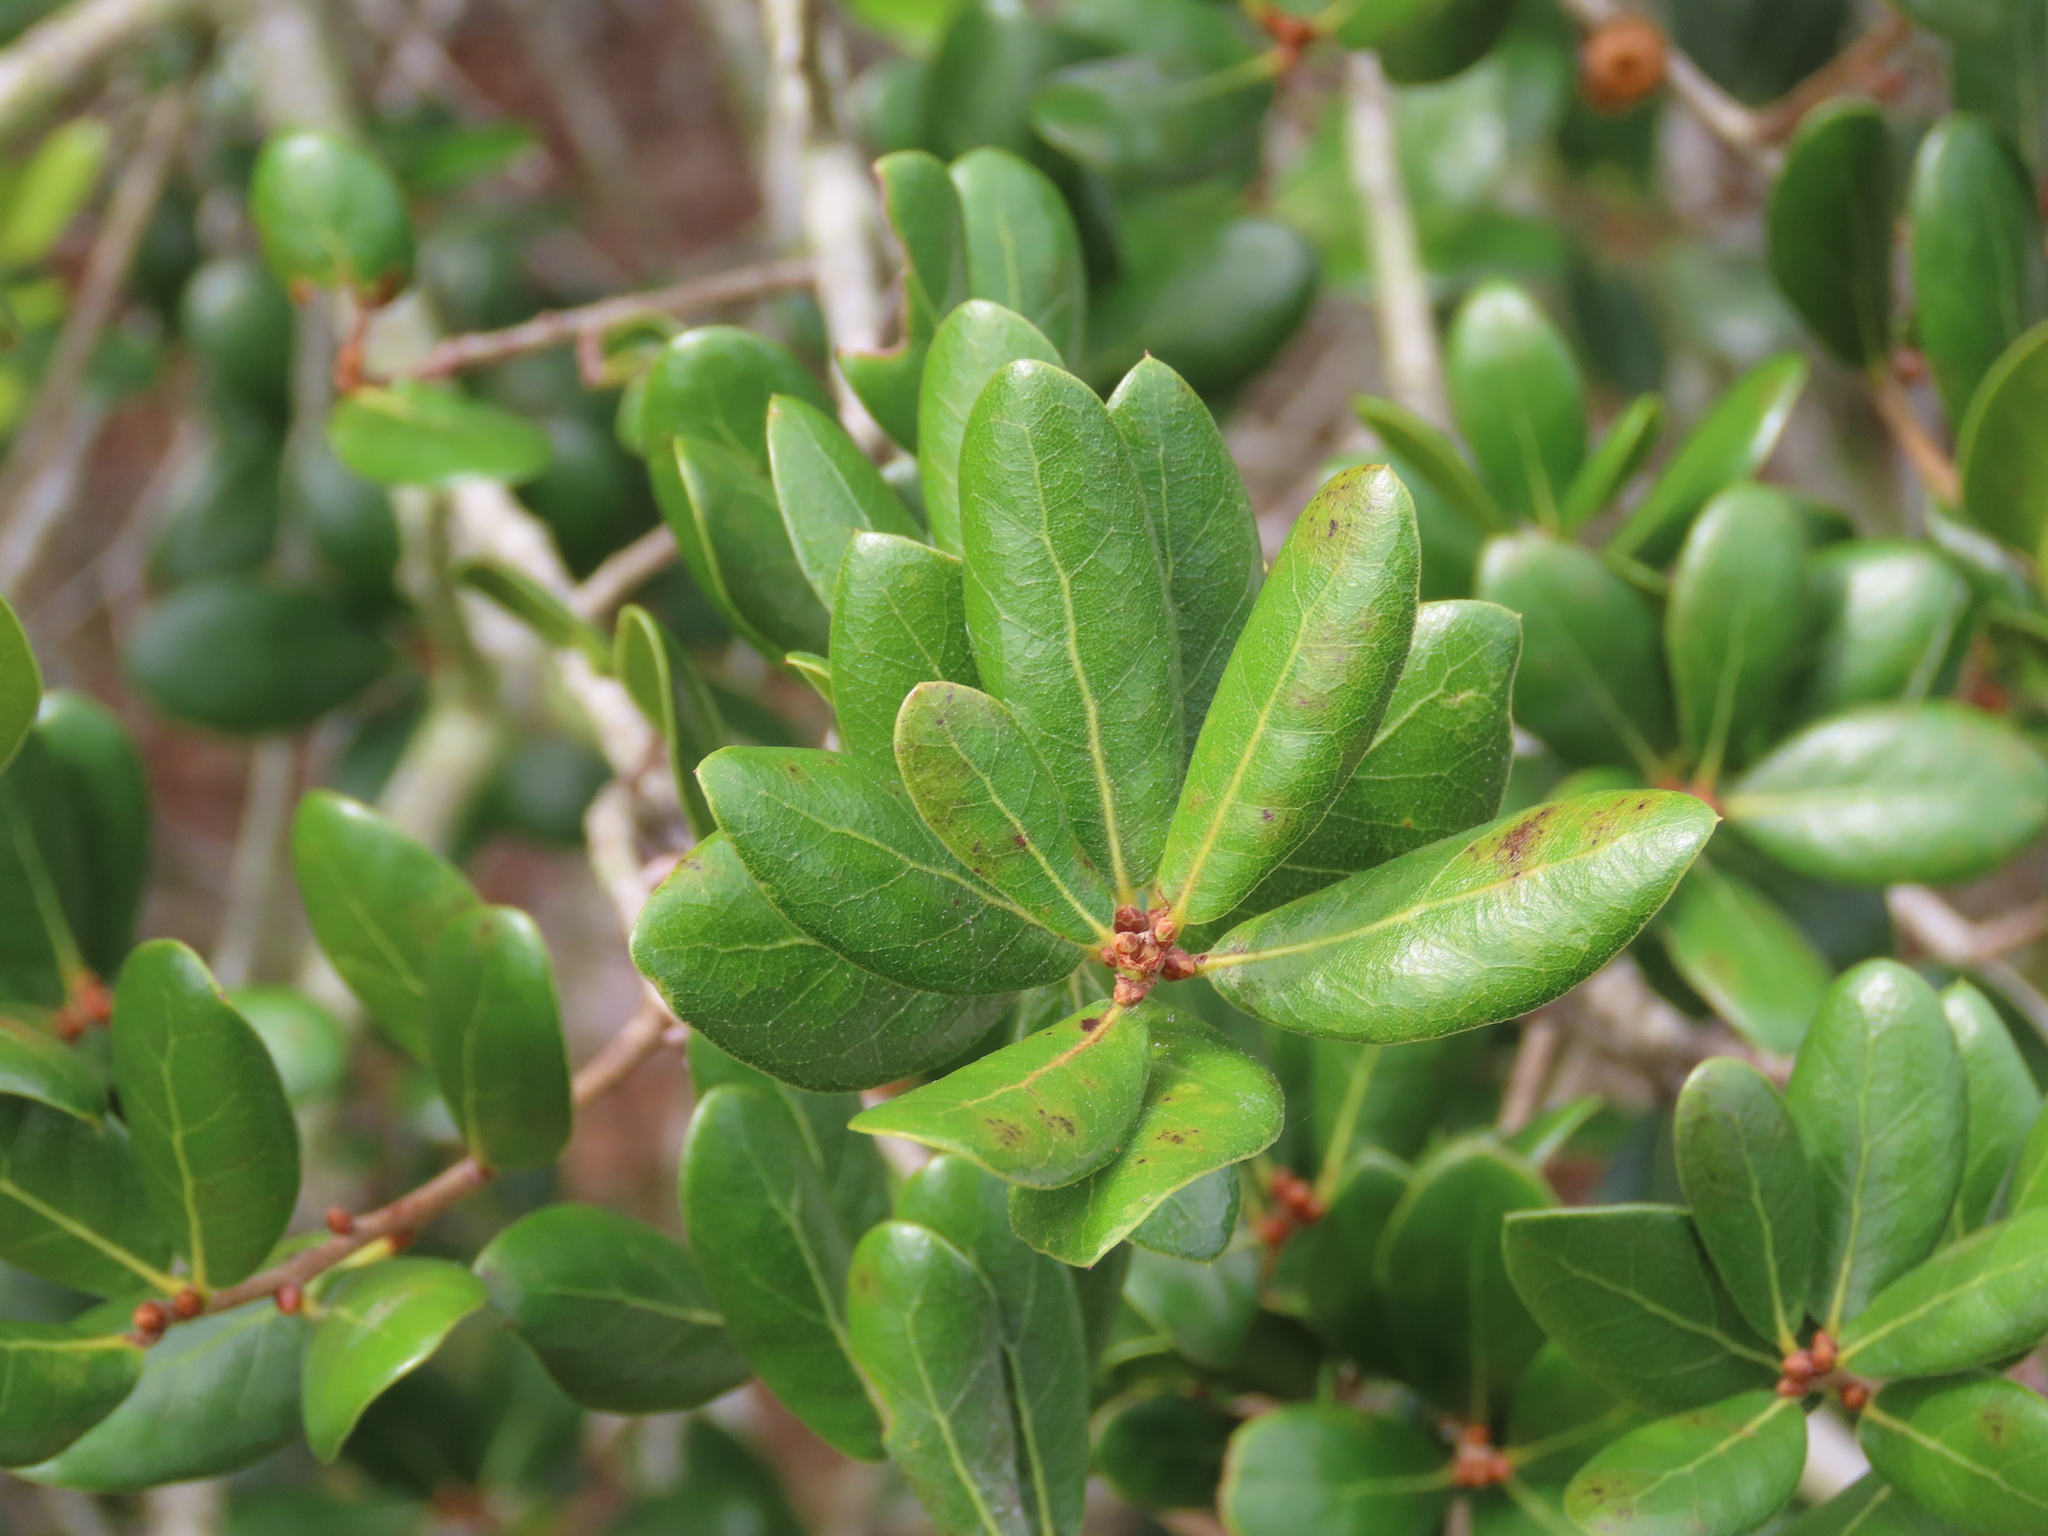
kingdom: Plantae
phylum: Tracheophyta
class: Magnoliopsida
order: Fagales
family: Fagaceae
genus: Quercus
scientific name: Quercus myrtifolia
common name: Myrtle oak
